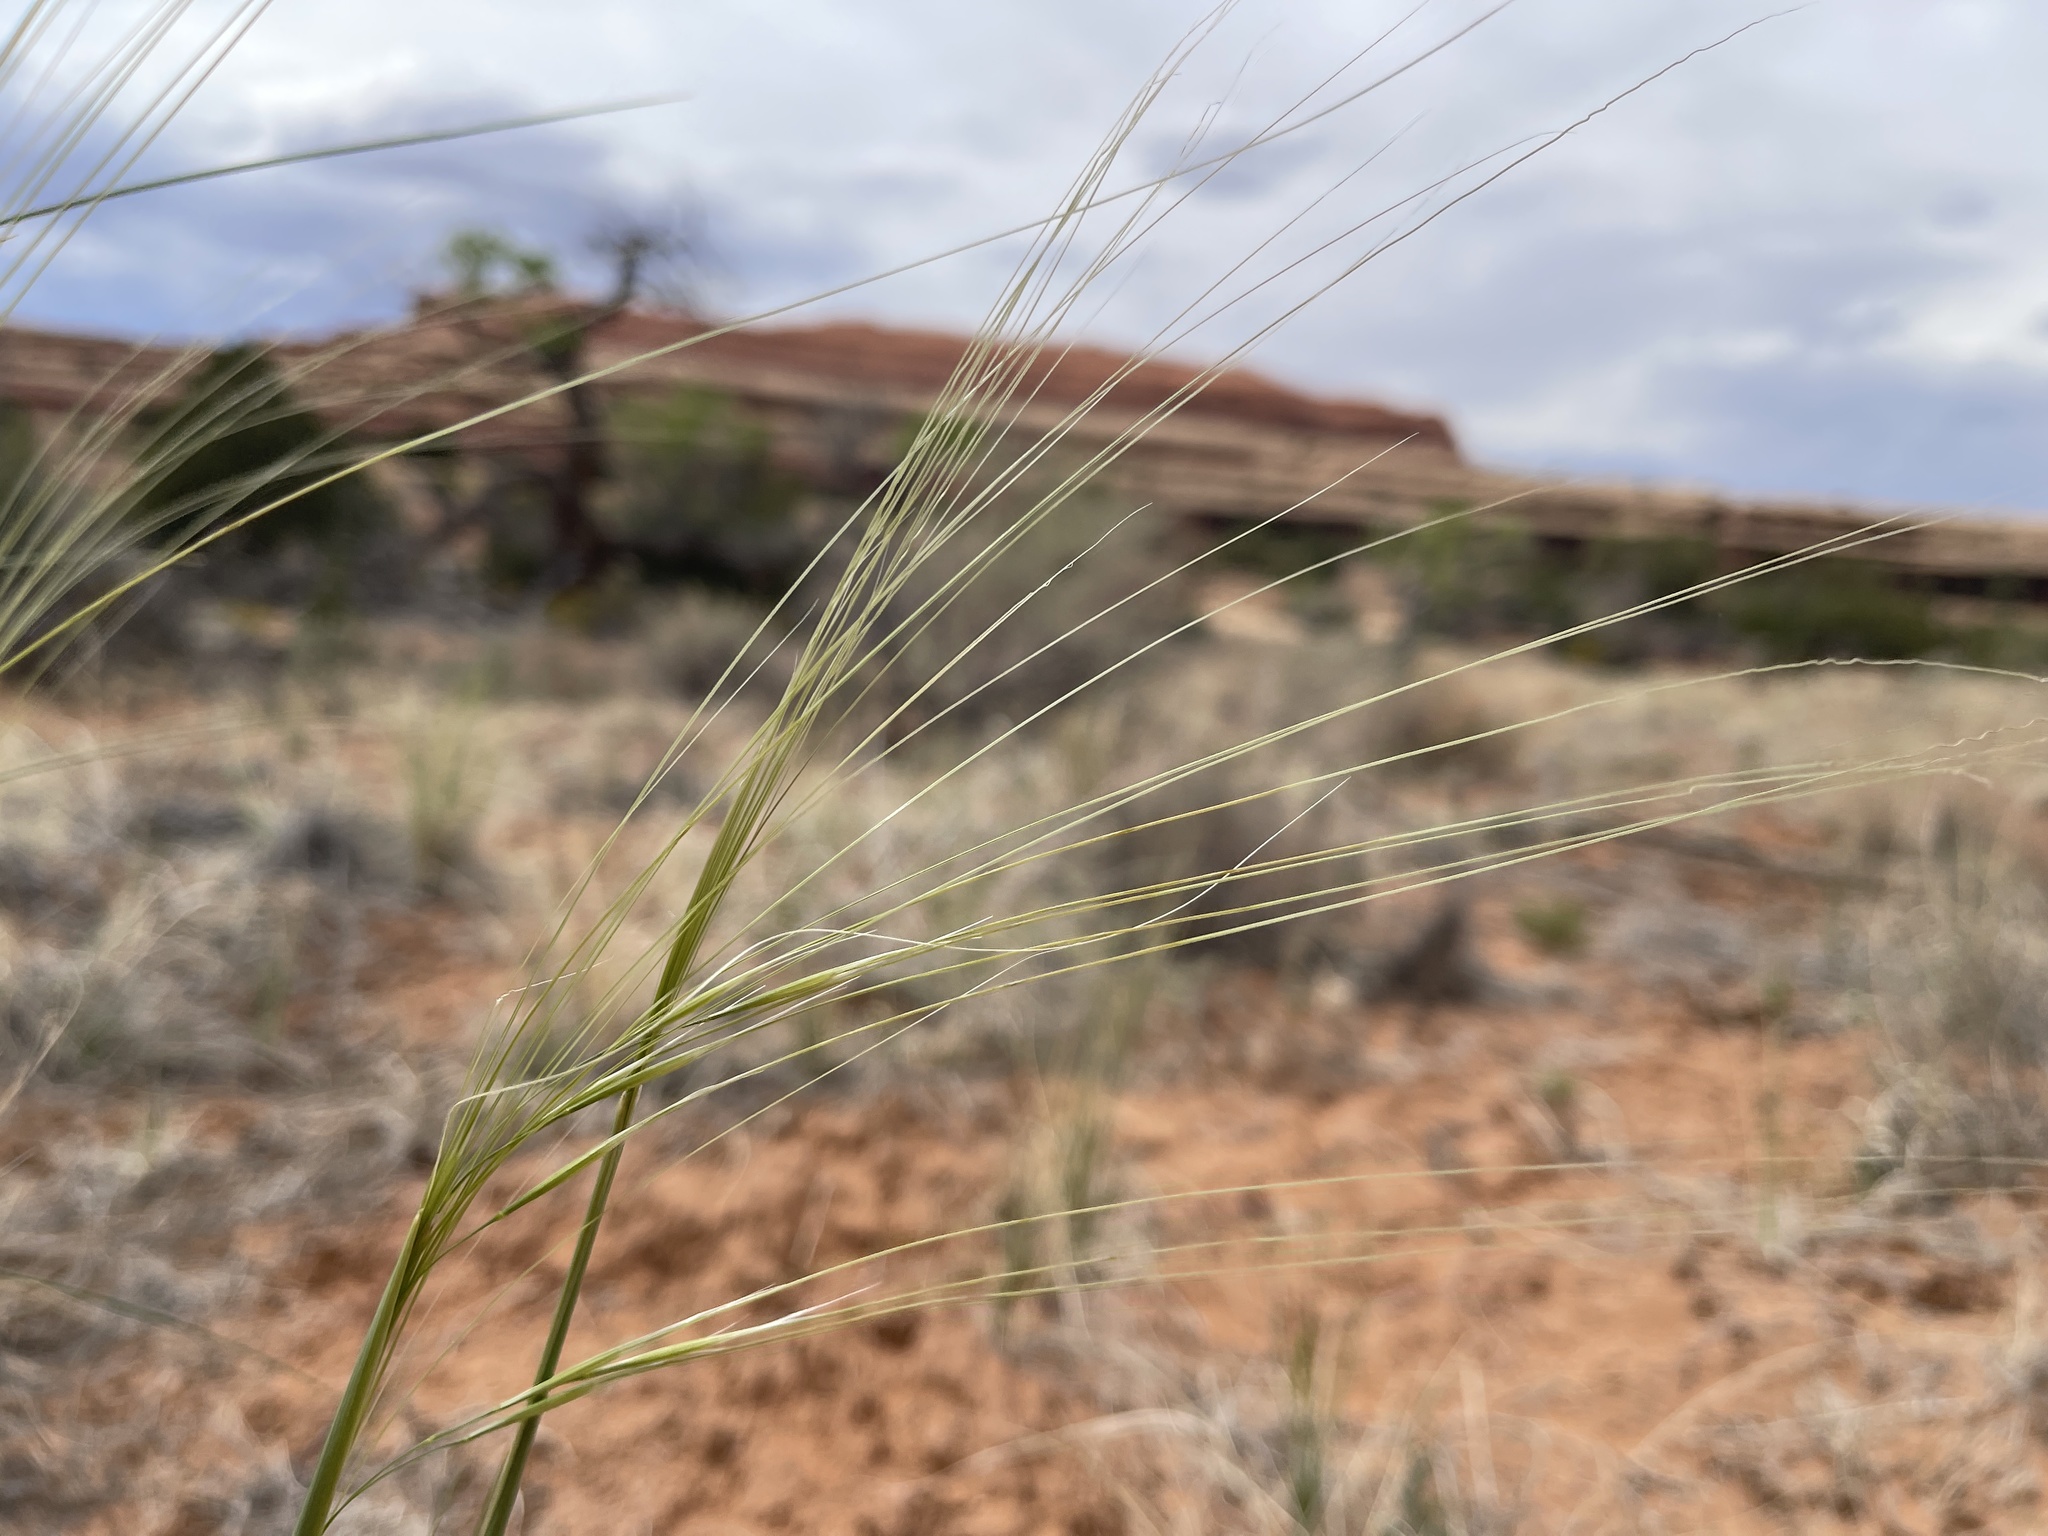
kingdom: Plantae
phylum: Tracheophyta
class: Liliopsida
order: Poales
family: Poaceae
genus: Hesperostipa
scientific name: Hesperostipa comata
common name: Needle-and-thread grass
